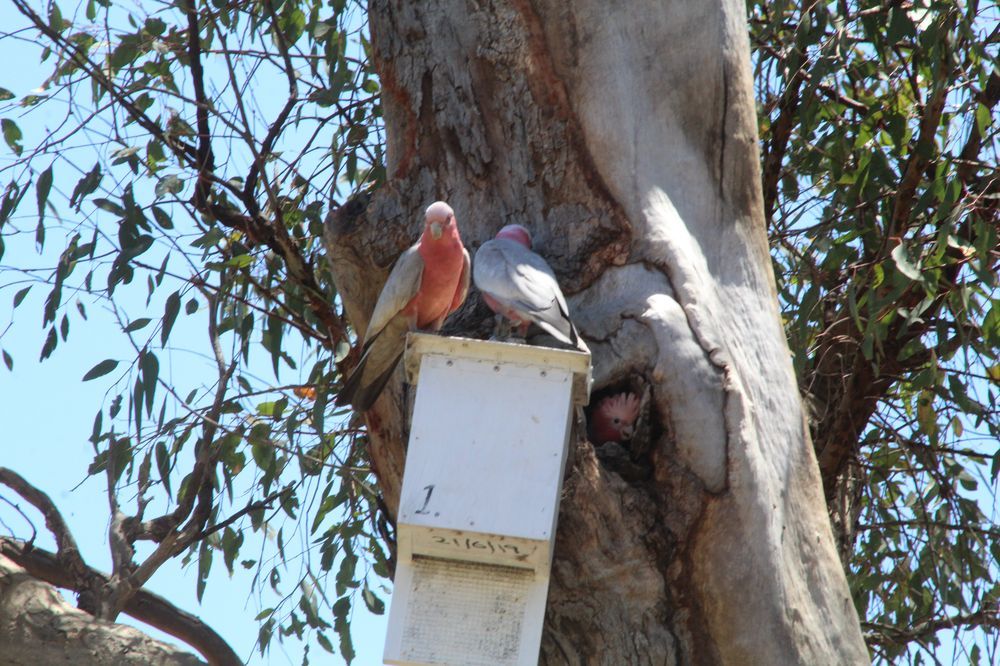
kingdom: Animalia
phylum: Chordata
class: Aves
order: Psittaciformes
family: Psittacidae
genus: Eolophus
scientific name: Eolophus roseicapilla
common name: Galah
